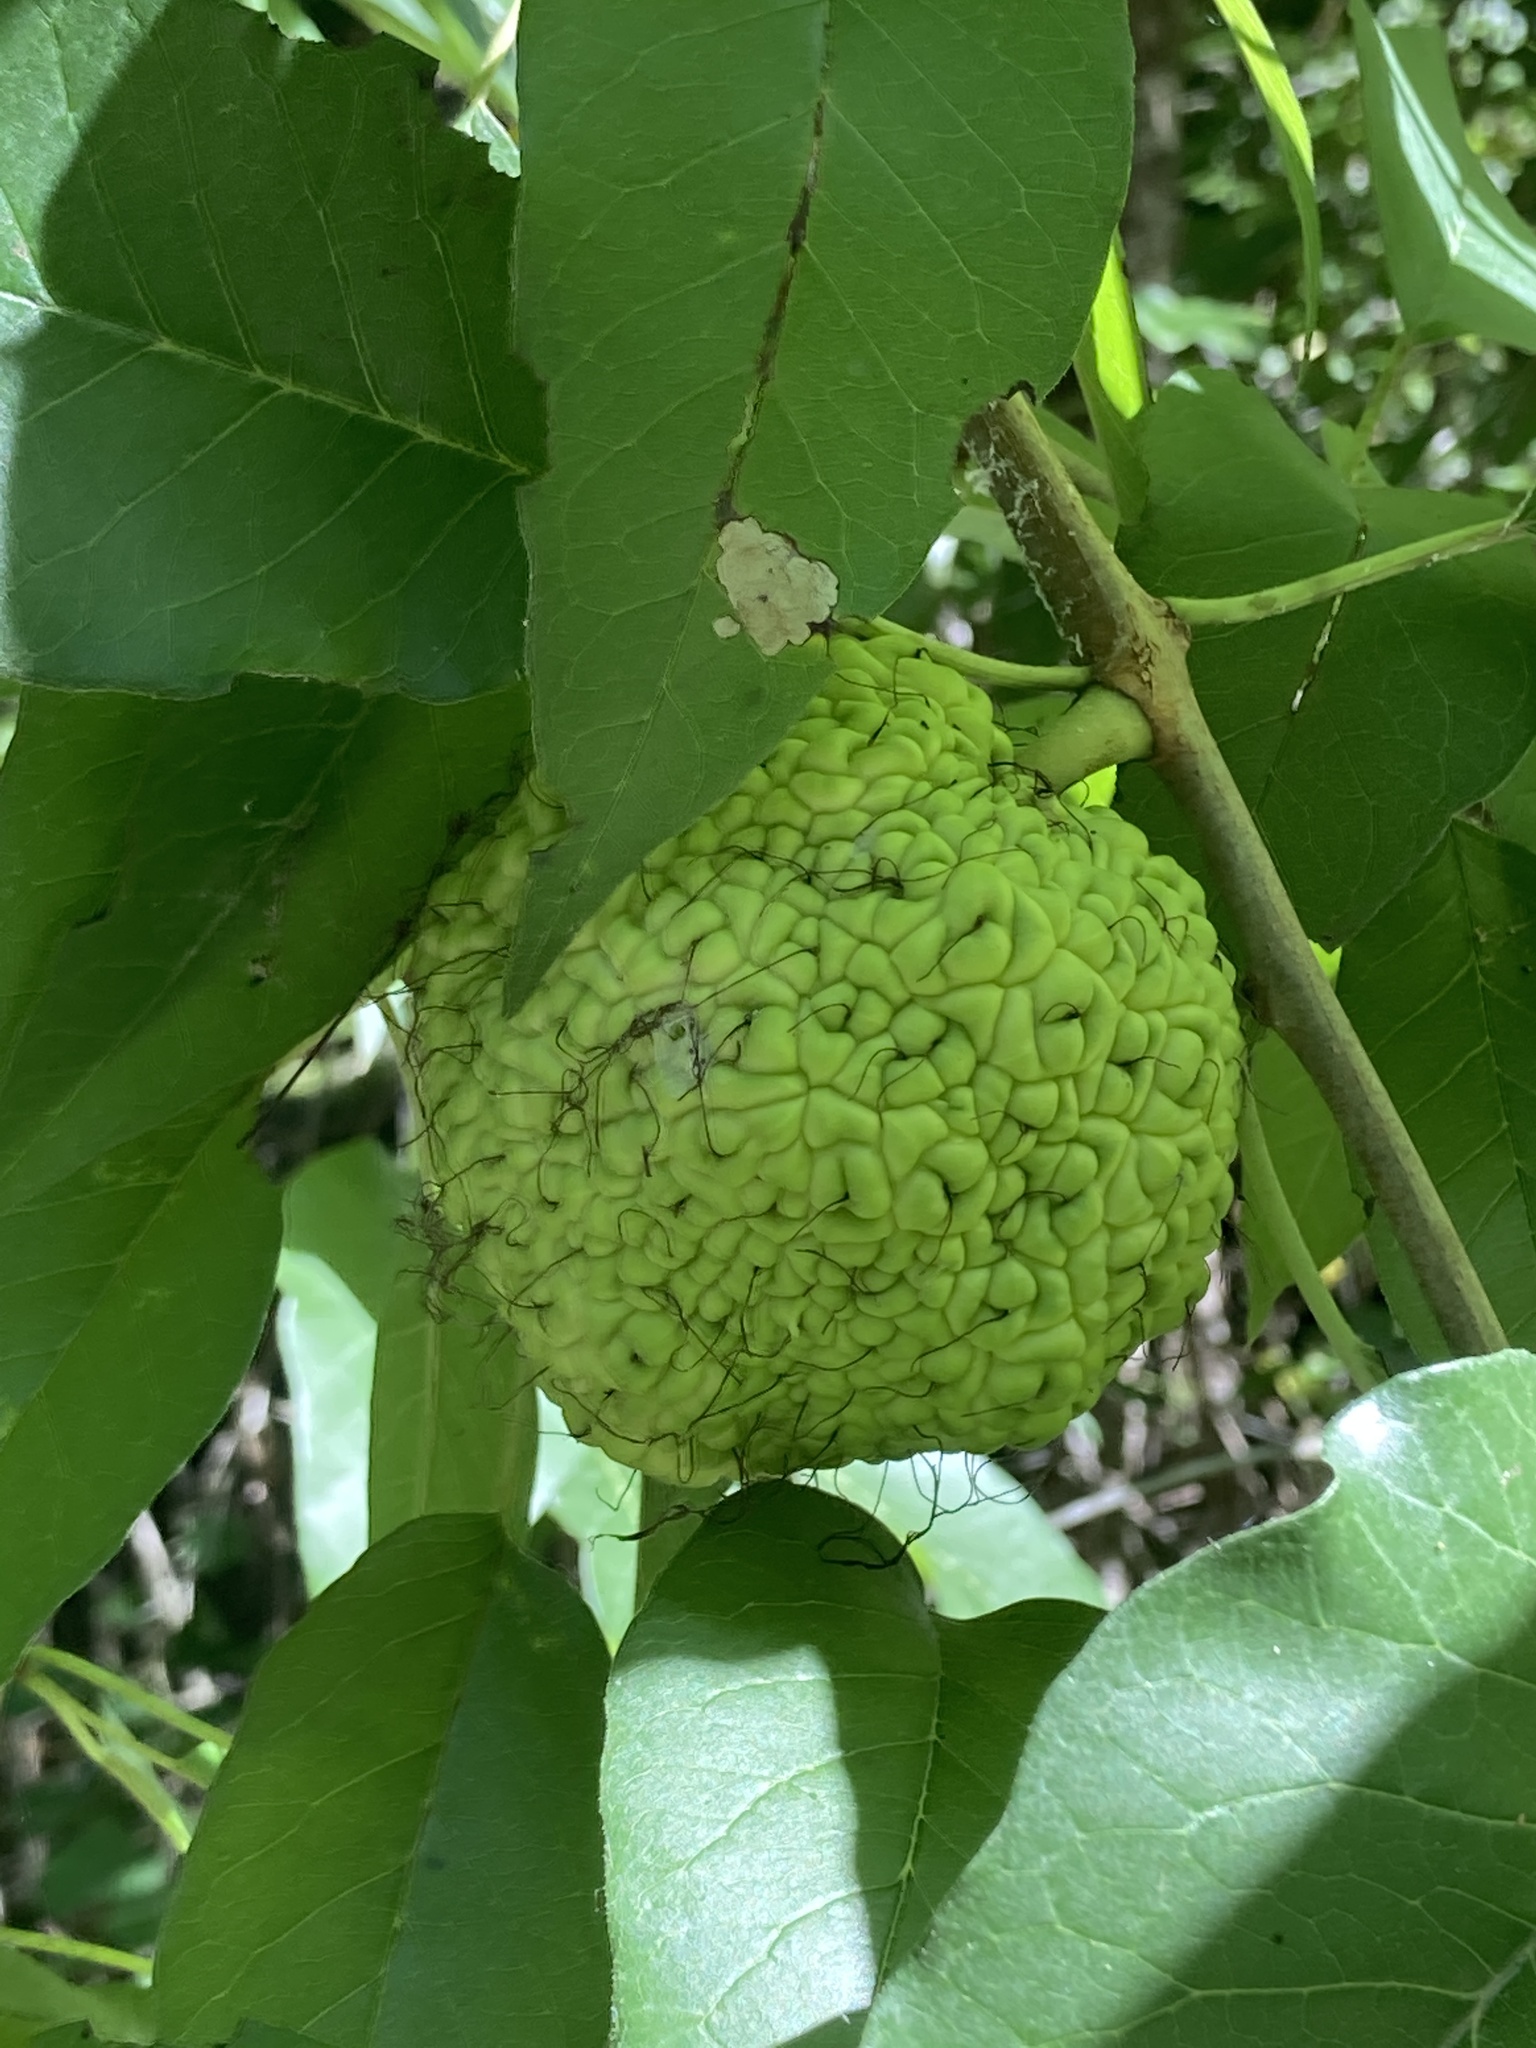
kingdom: Plantae
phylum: Tracheophyta
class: Magnoliopsida
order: Rosales
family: Moraceae
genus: Maclura
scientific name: Maclura pomifera
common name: Osage-orange
